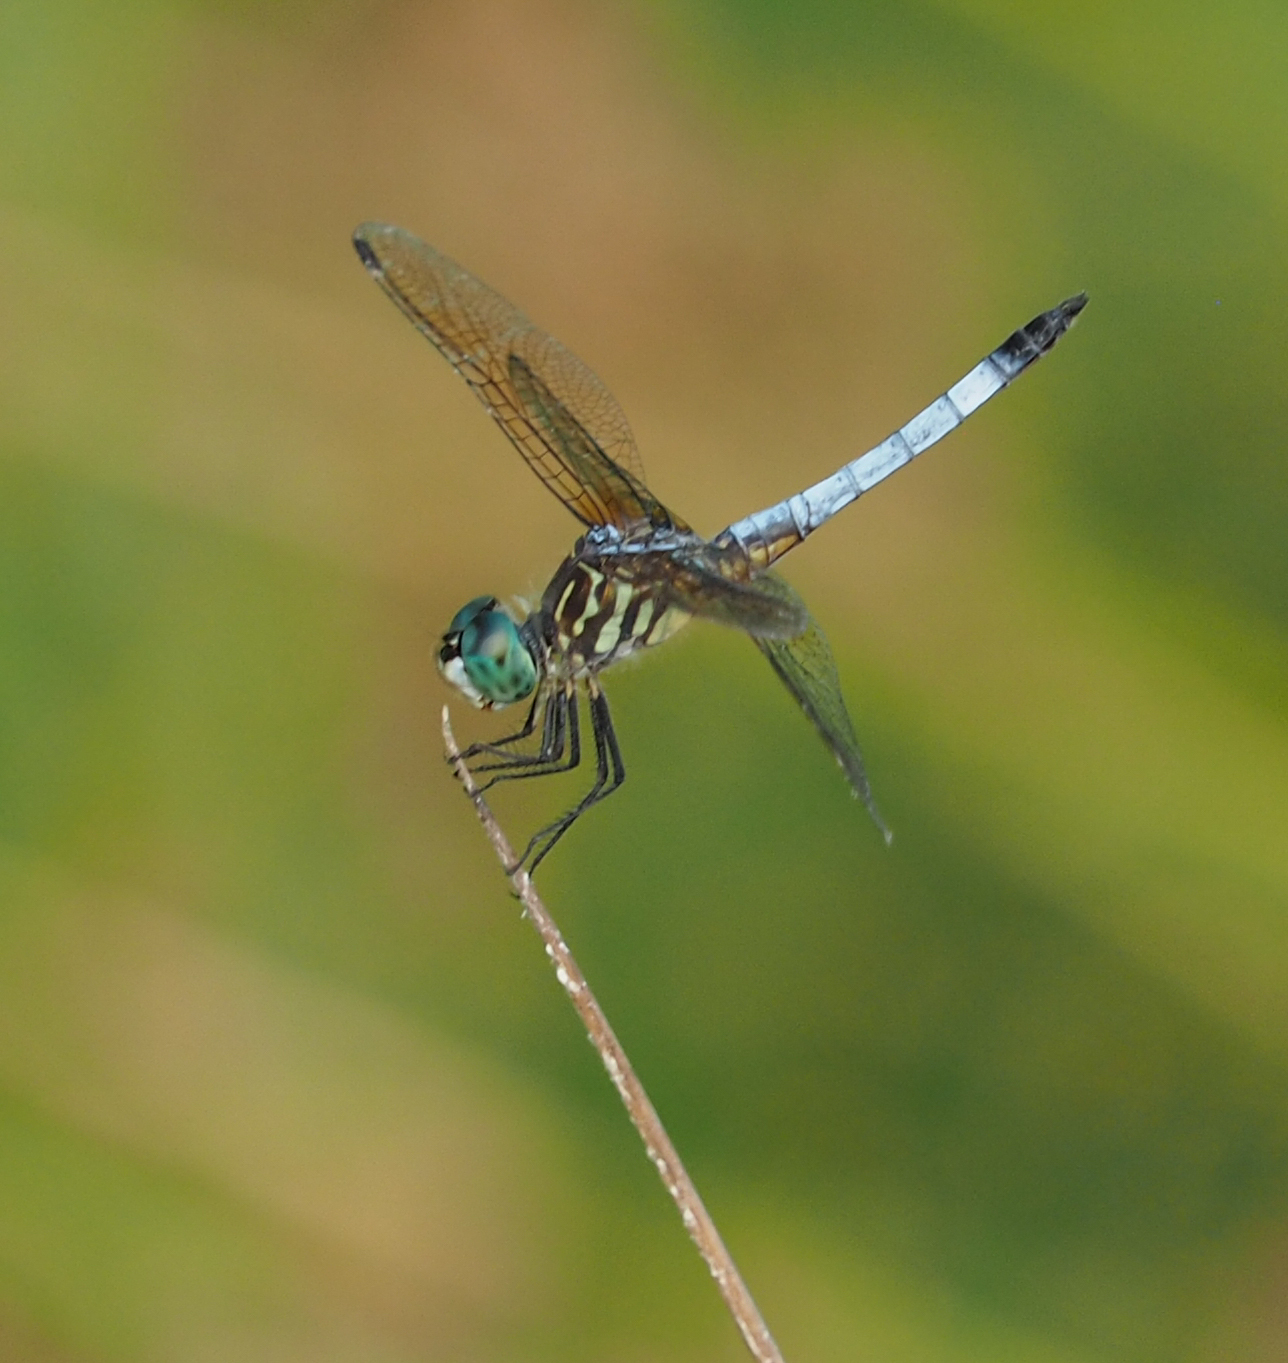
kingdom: Animalia
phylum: Arthropoda
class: Insecta
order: Odonata
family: Libellulidae
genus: Pachydiplax
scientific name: Pachydiplax longipennis
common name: Blue dasher
